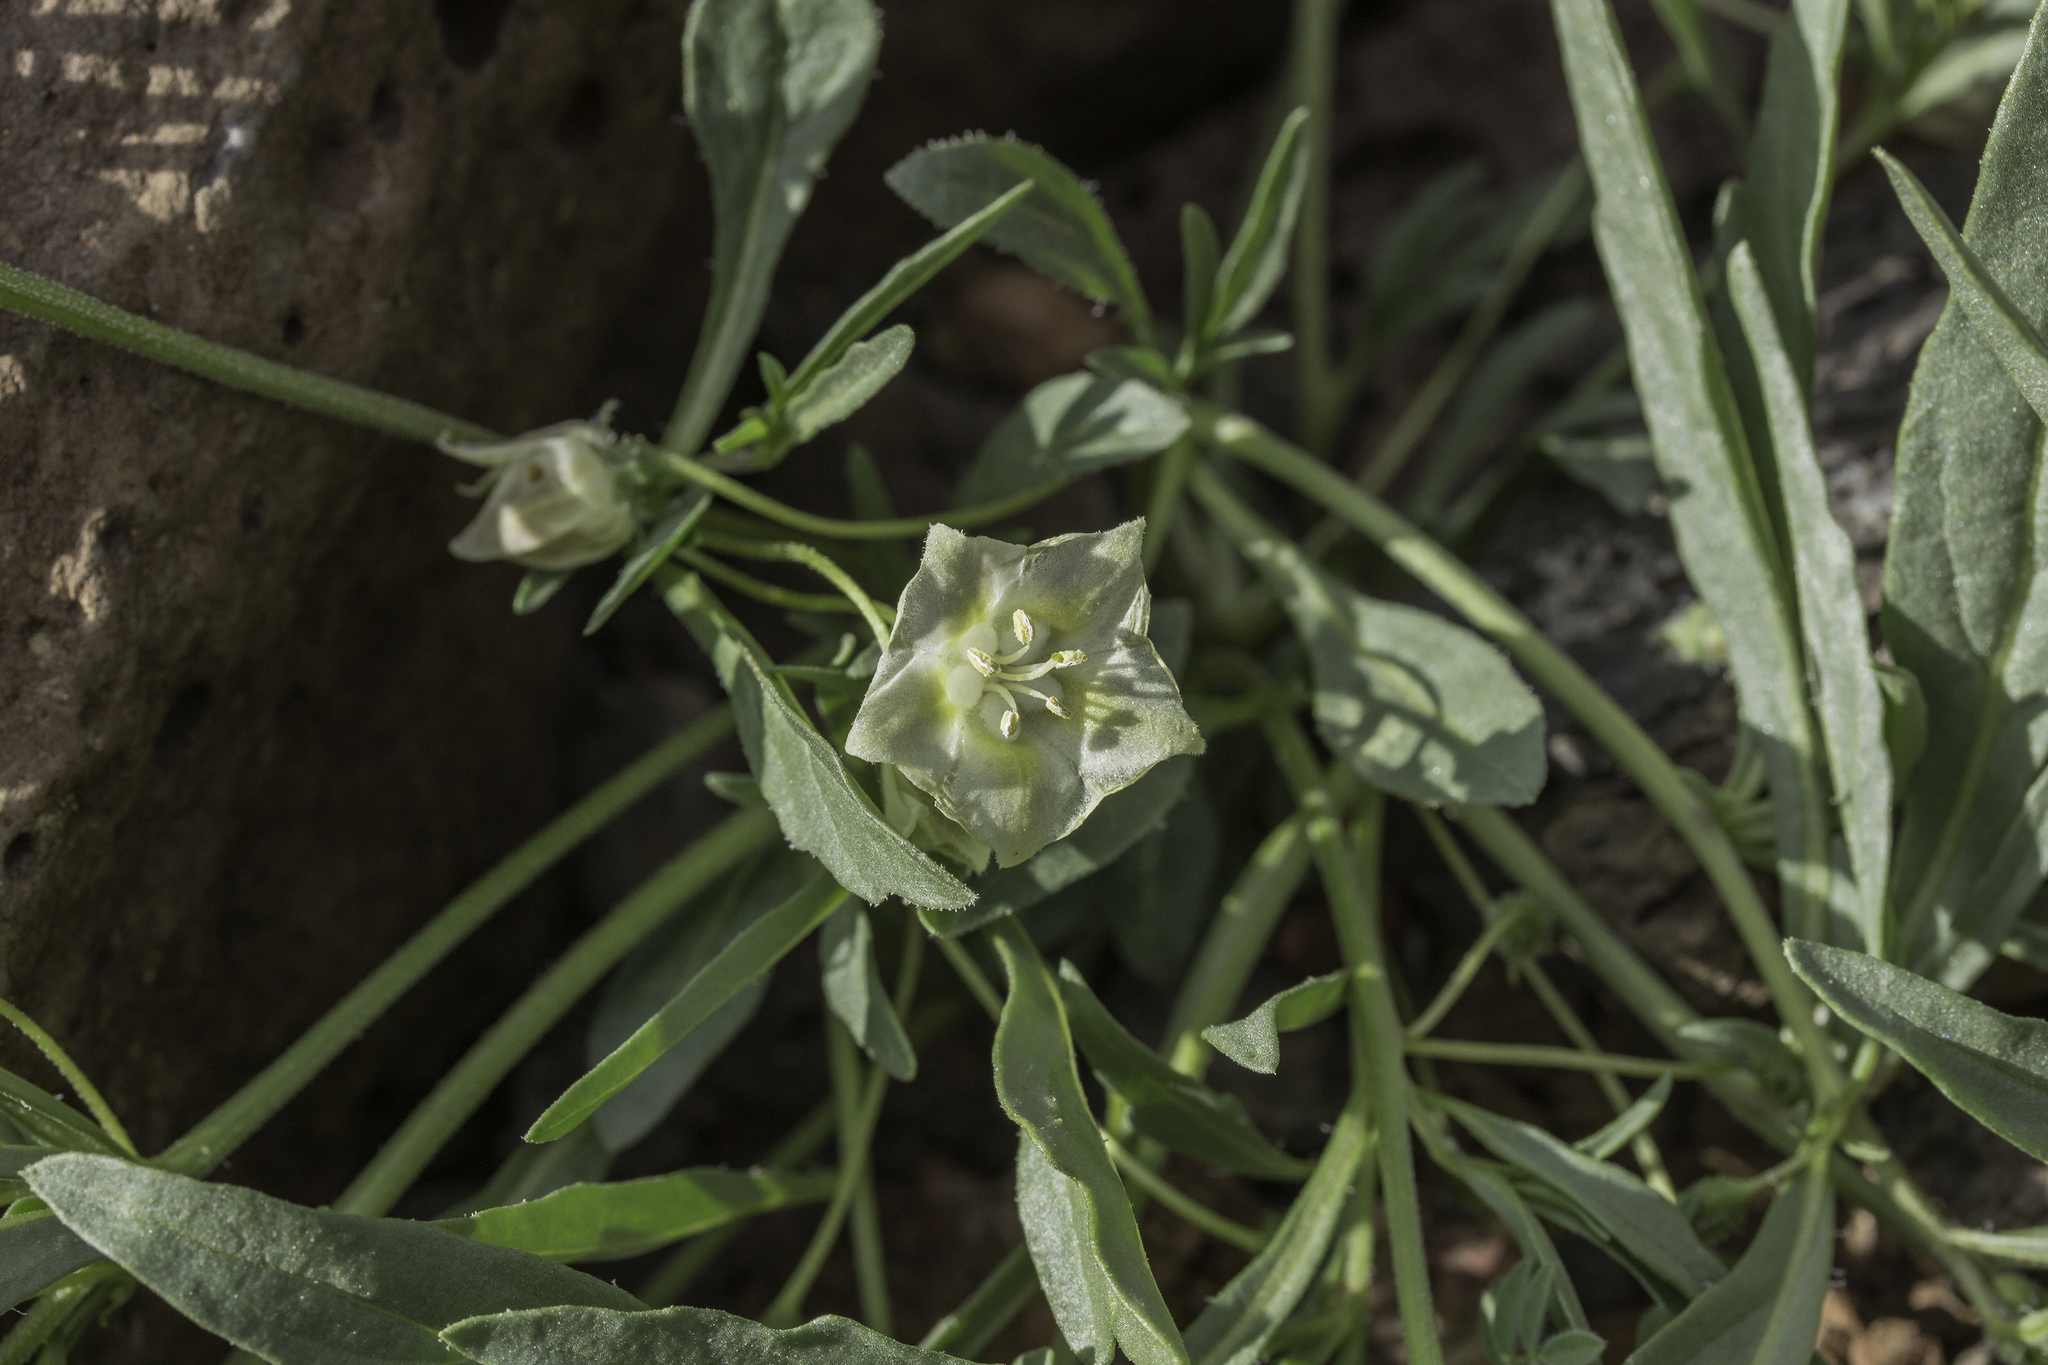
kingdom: Plantae
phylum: Tracheophyta
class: Magnoliopsida
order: Solanales
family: Solanaceae
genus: Chamaesaracha
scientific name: Chamaesaracha coronopus
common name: Smooth chamaesaracha
